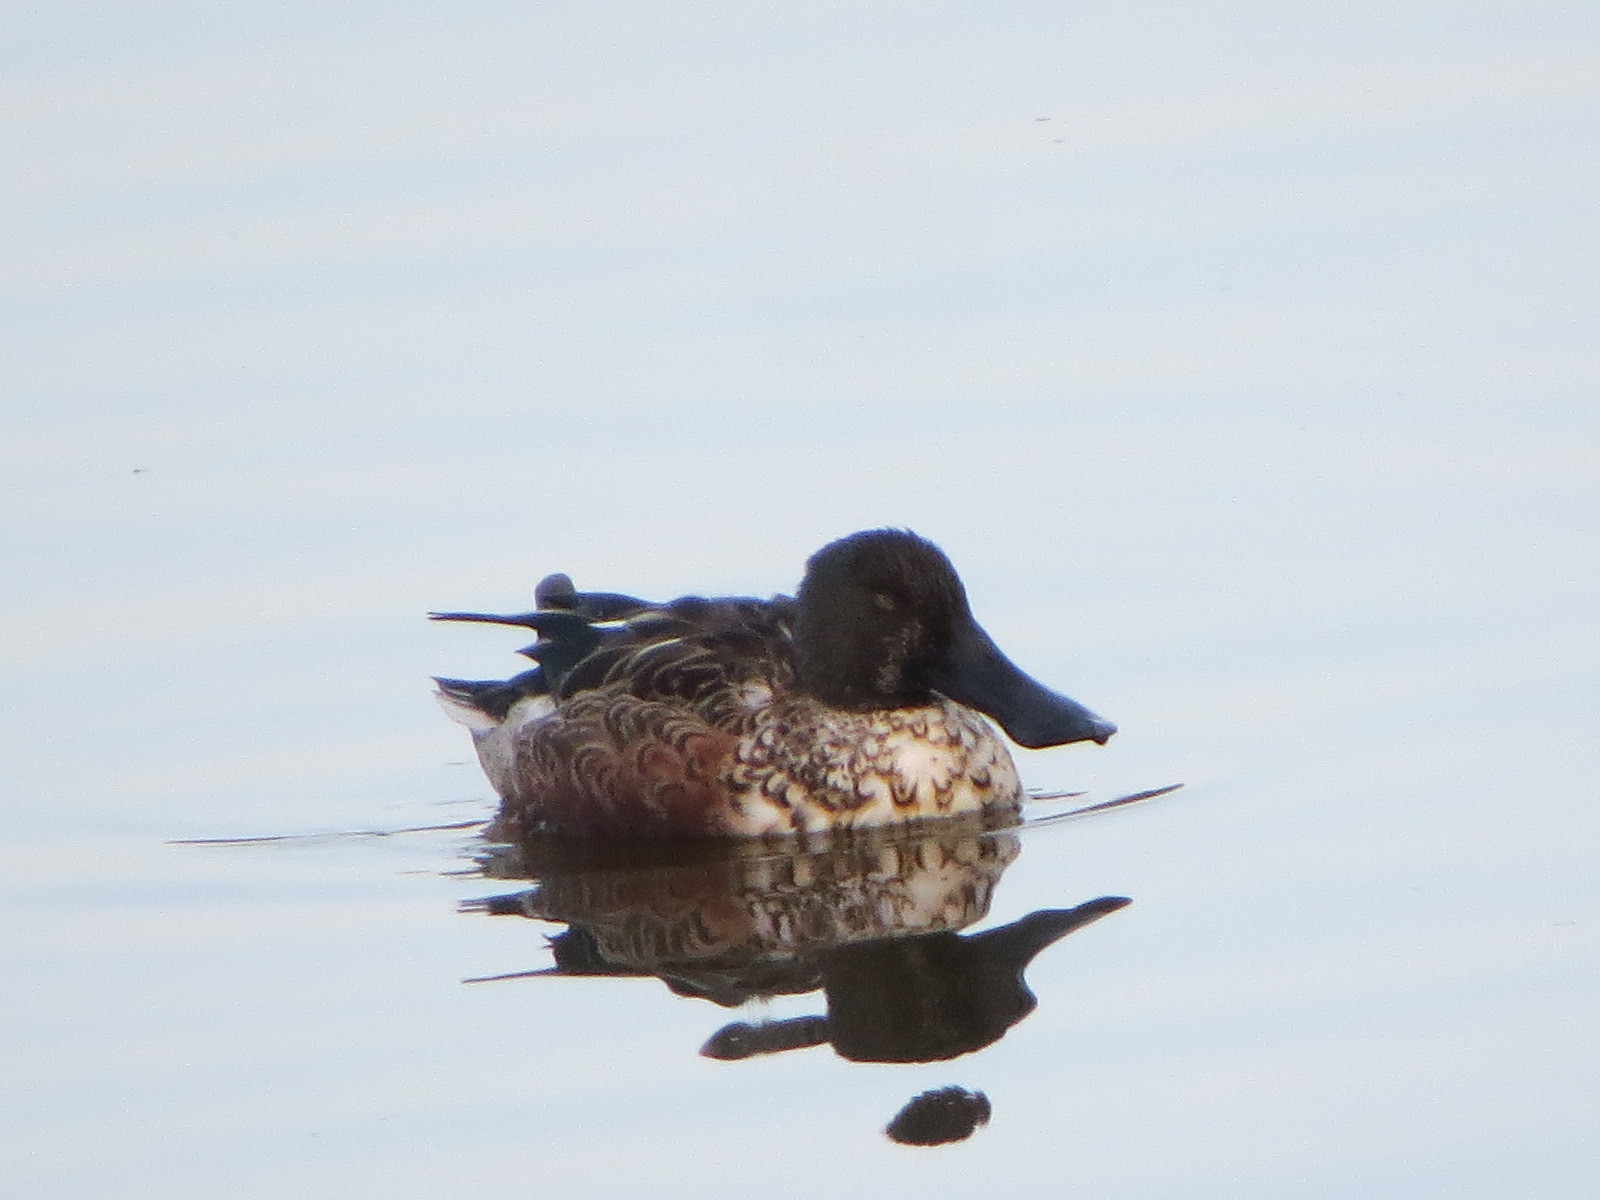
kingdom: Animalia
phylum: Chordata
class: Aves
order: Anseriformes
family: Anatidae
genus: Spatula
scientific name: Spatula clypeata
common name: Northern shoveler
